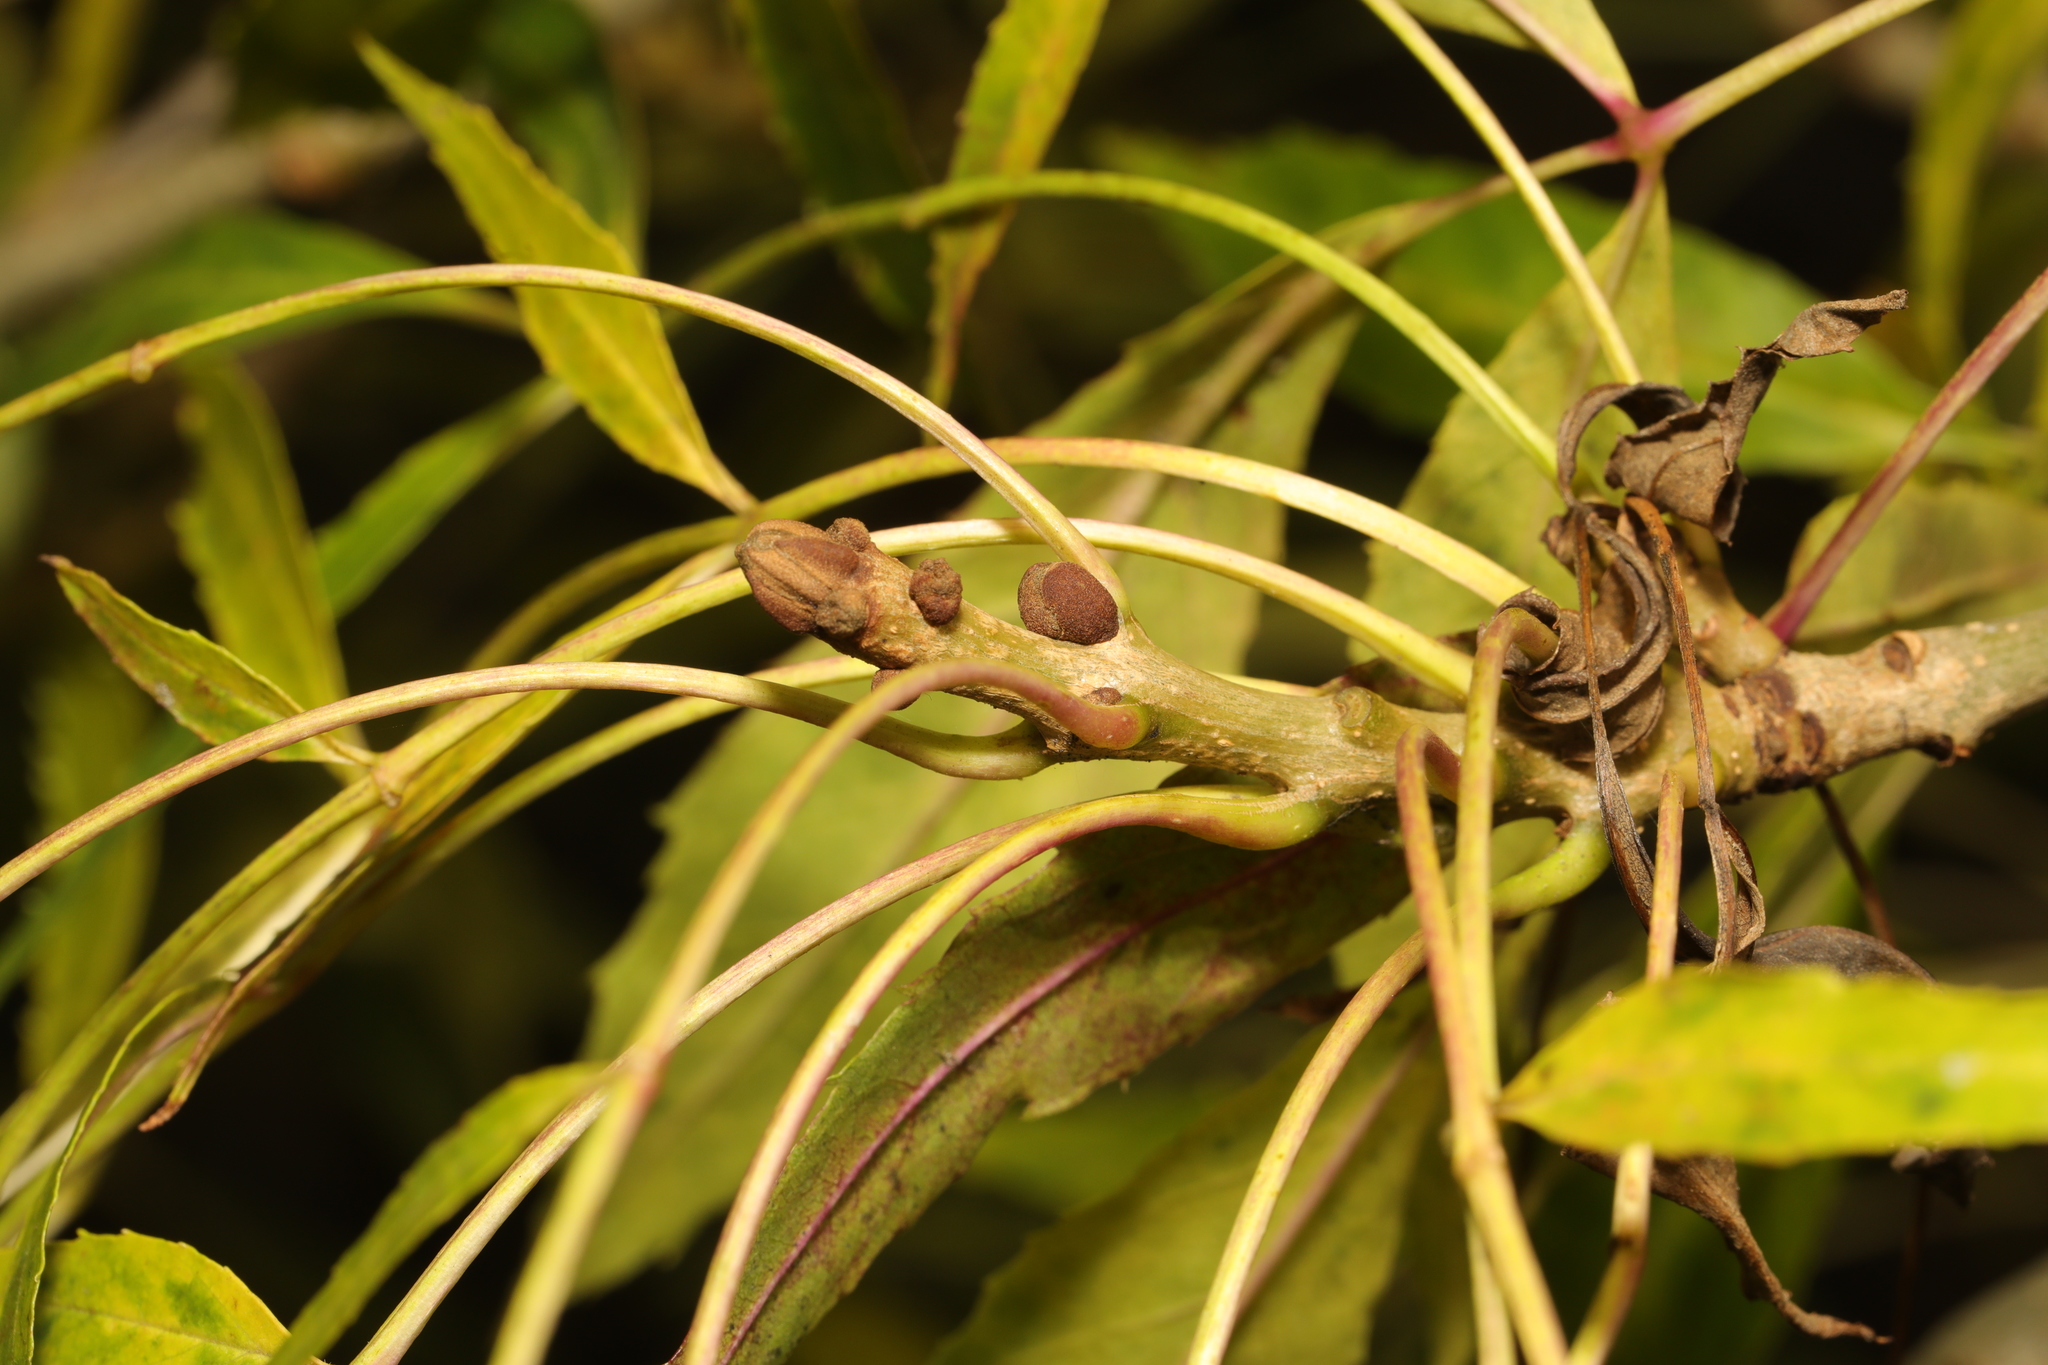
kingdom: Plantae
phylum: Tracheophyta
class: Magnoliopsida
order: Lamiales
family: Oleaceae
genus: Fraxinus
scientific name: Fraxinus angustifolia
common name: Narrow-leafed ash
